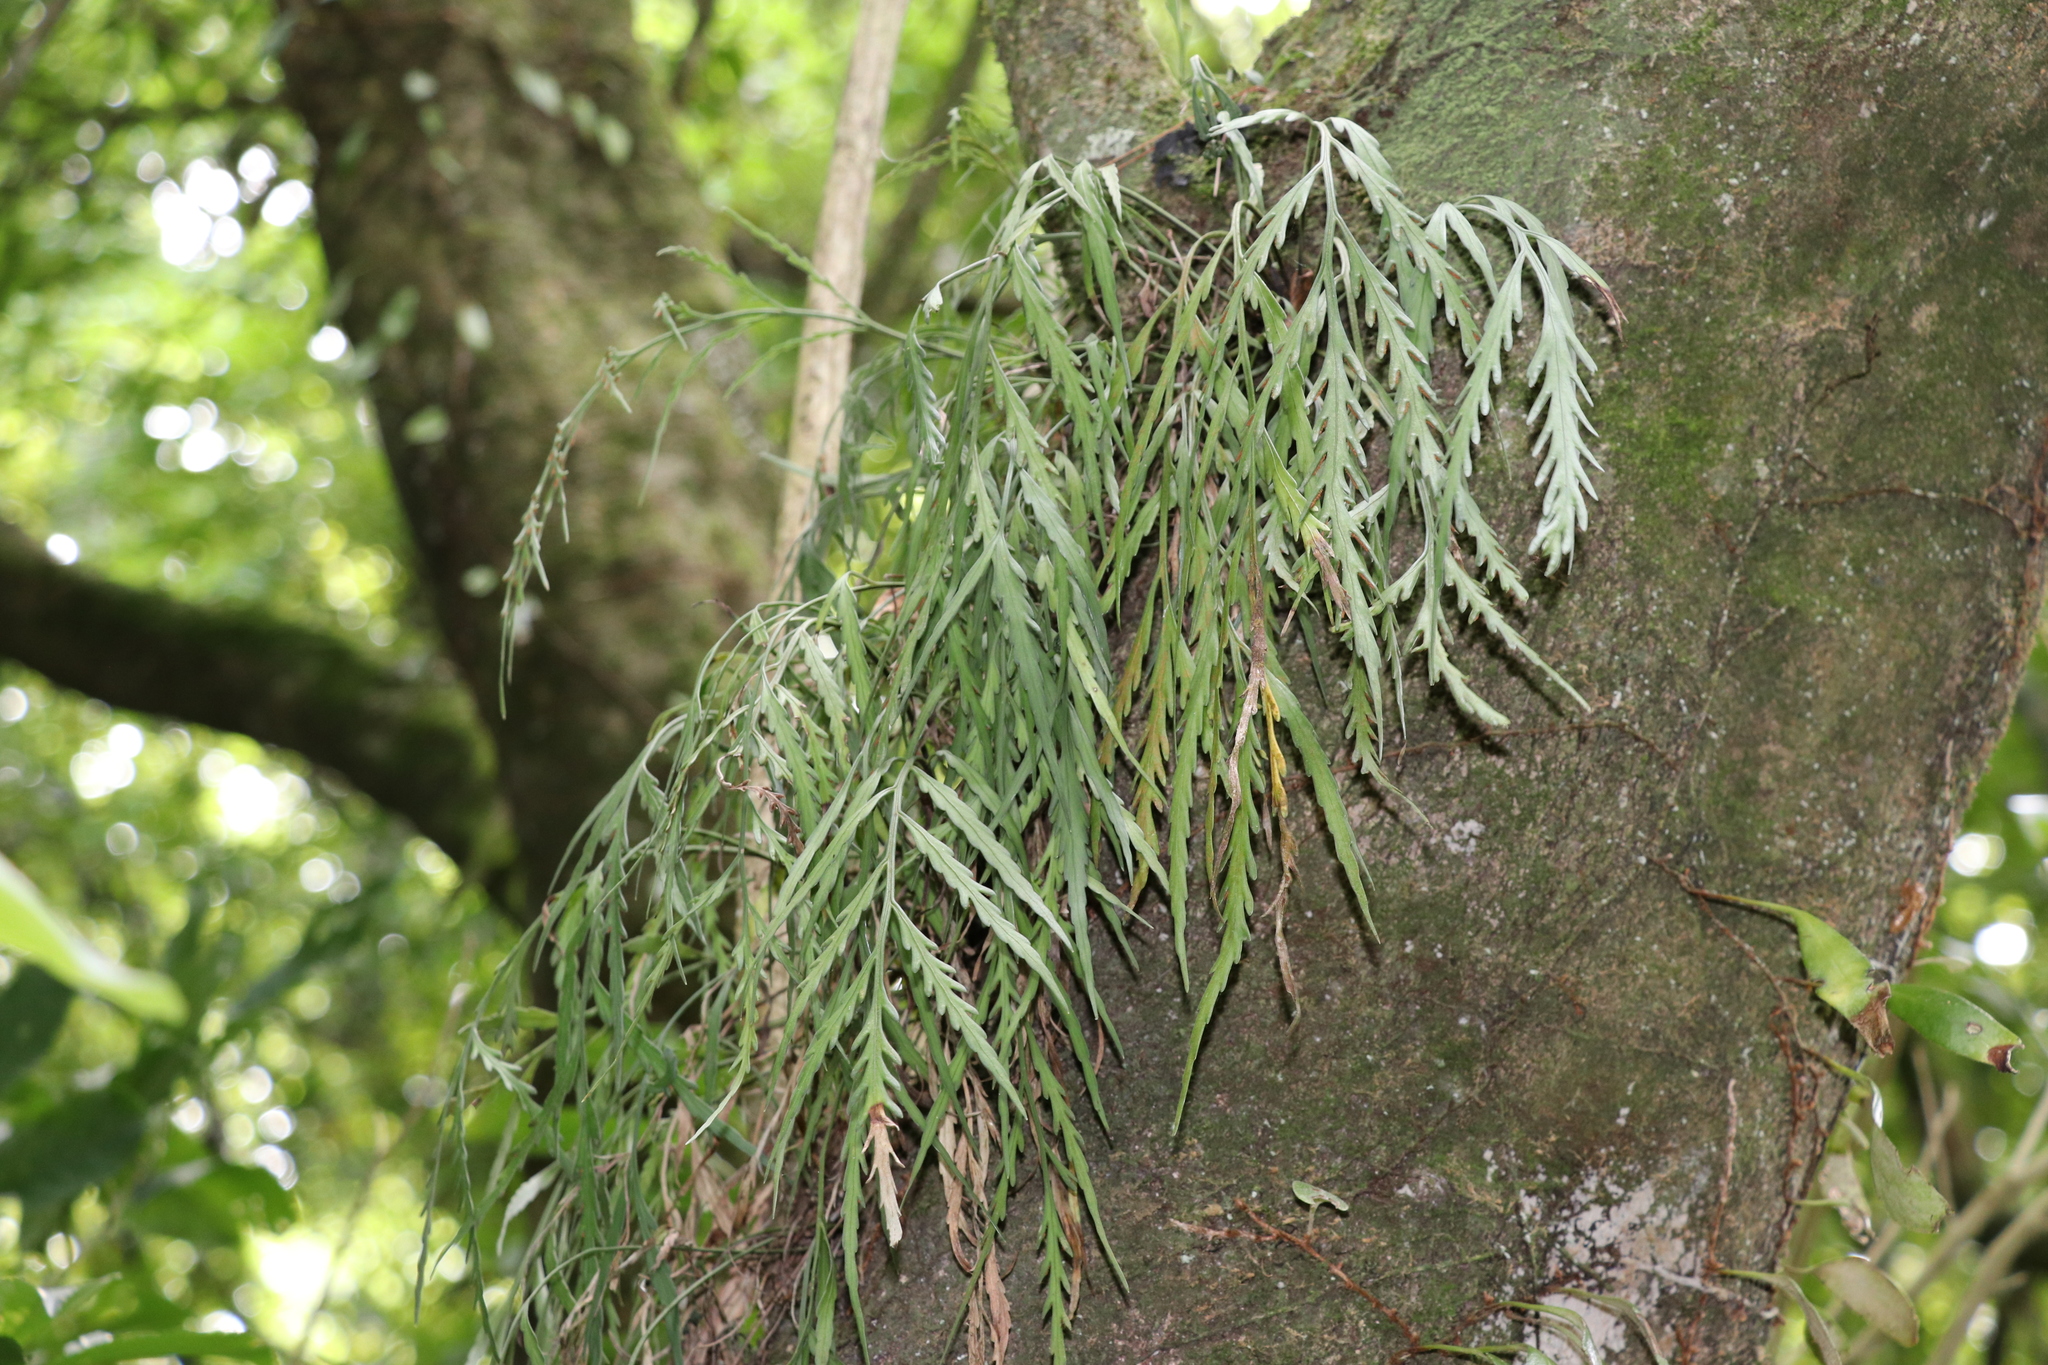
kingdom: Plantae
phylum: Tracheophyta
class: Polypodiopsida
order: Polypodiales
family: Aspleniaceae
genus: Asplenium
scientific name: Asplenium flaccidum
